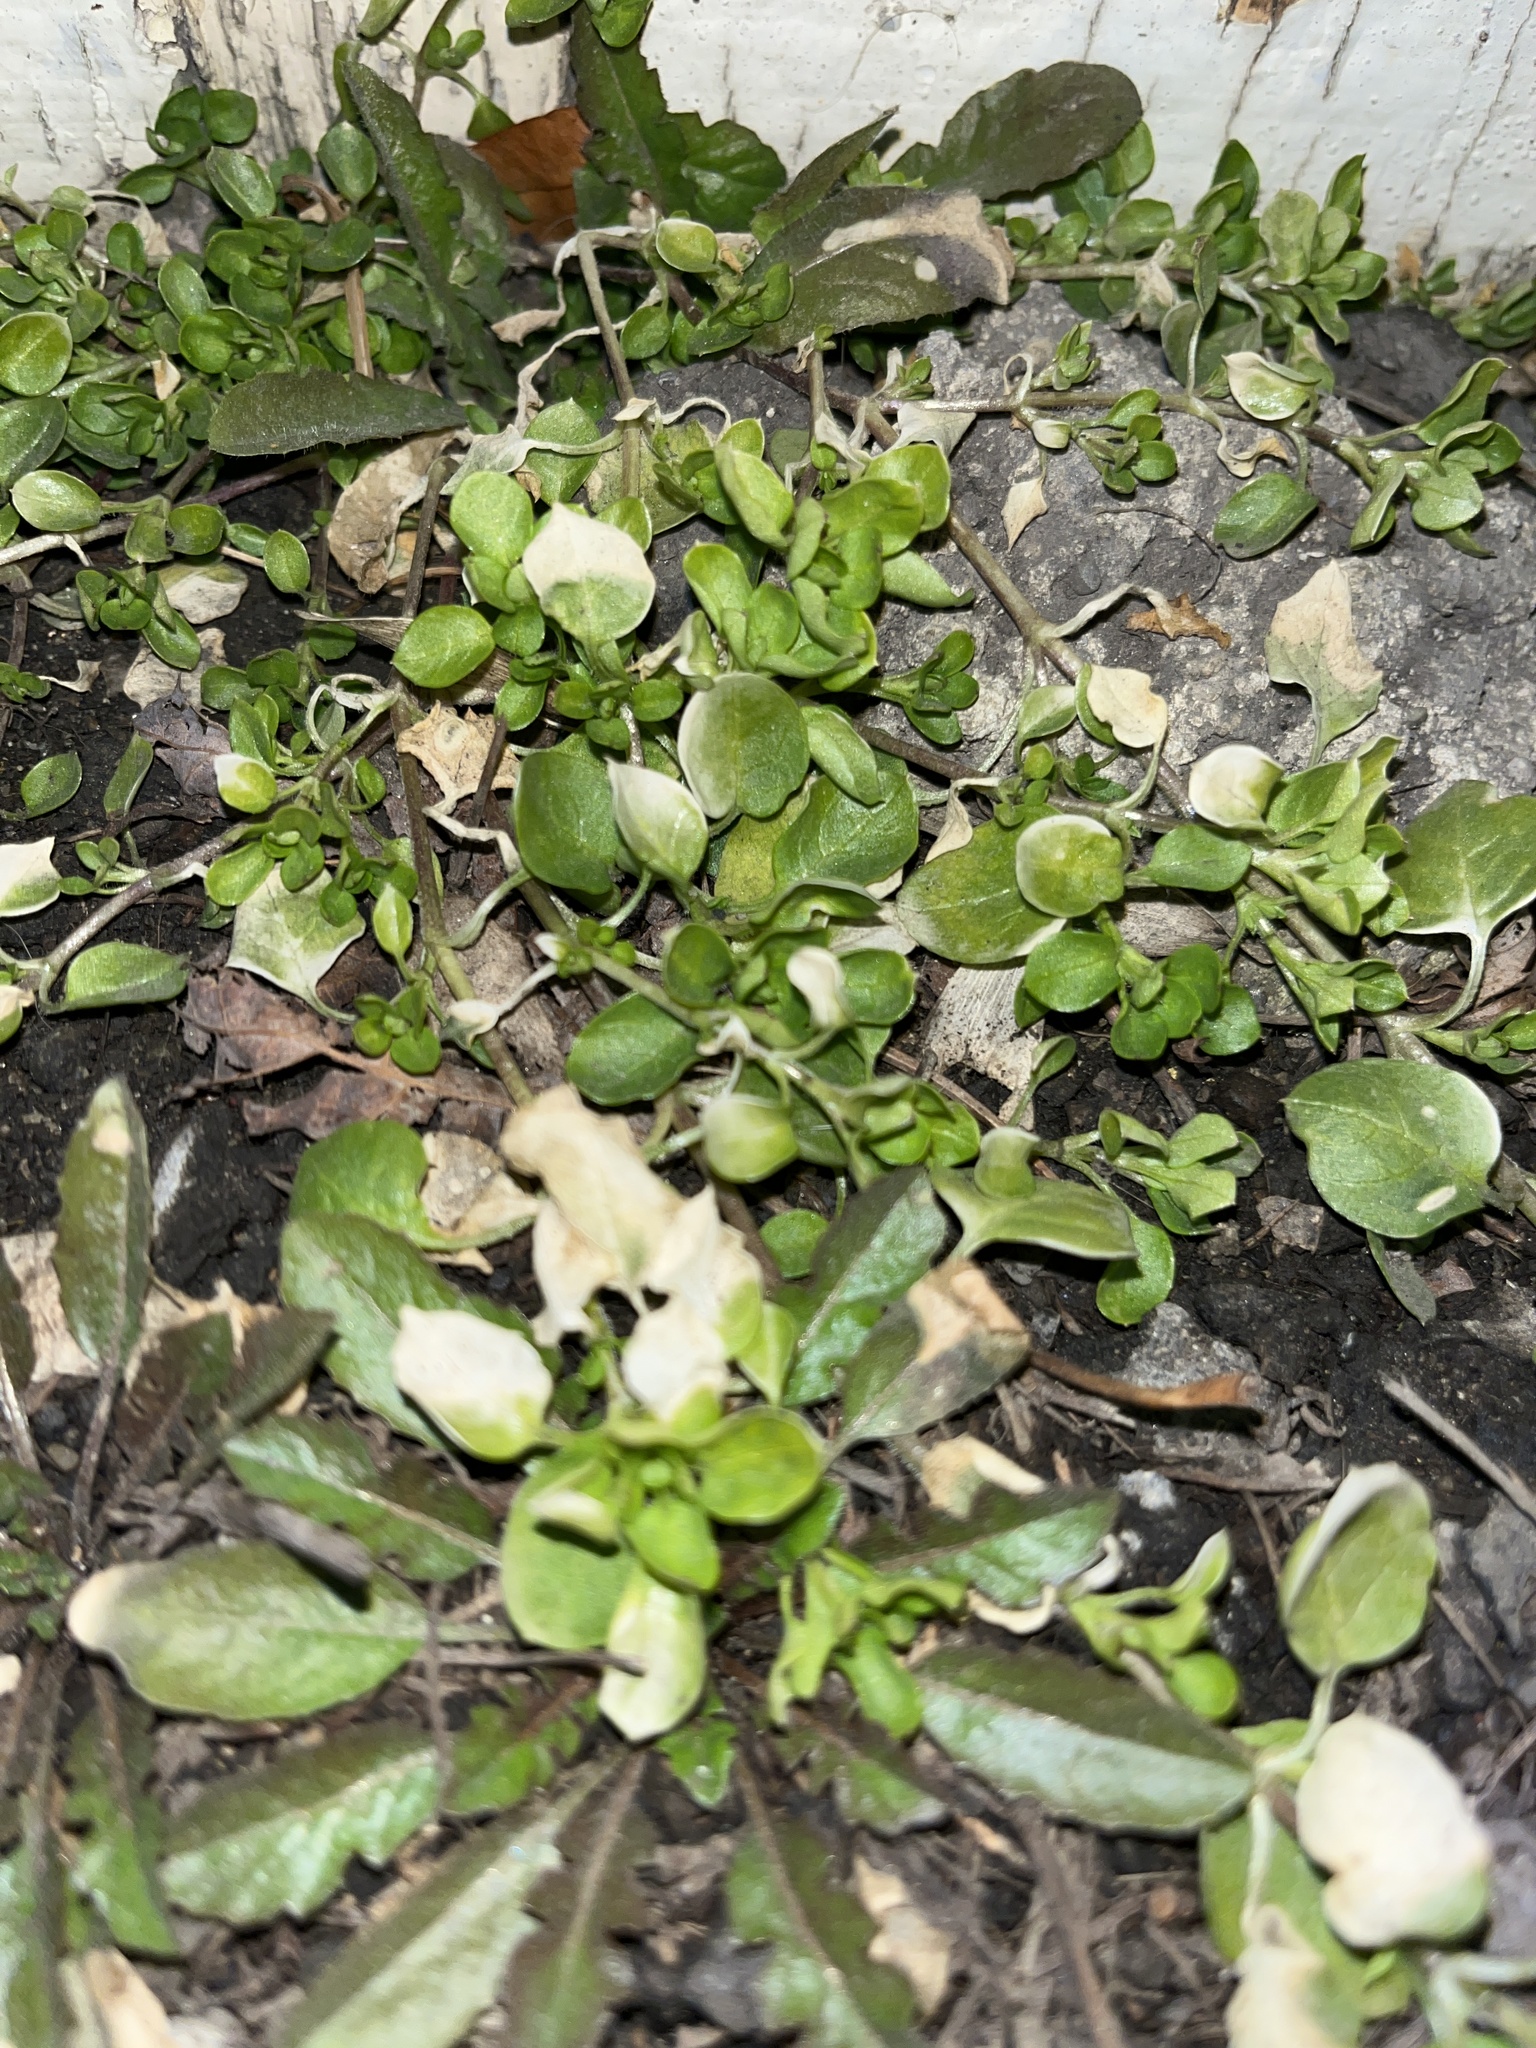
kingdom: Plantae
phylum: Tracheophyta
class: Magnoliopsida
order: Caryophyllales
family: Caryophyllaceae
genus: Stellaria
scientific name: Stellaria media
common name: Common chickweed
